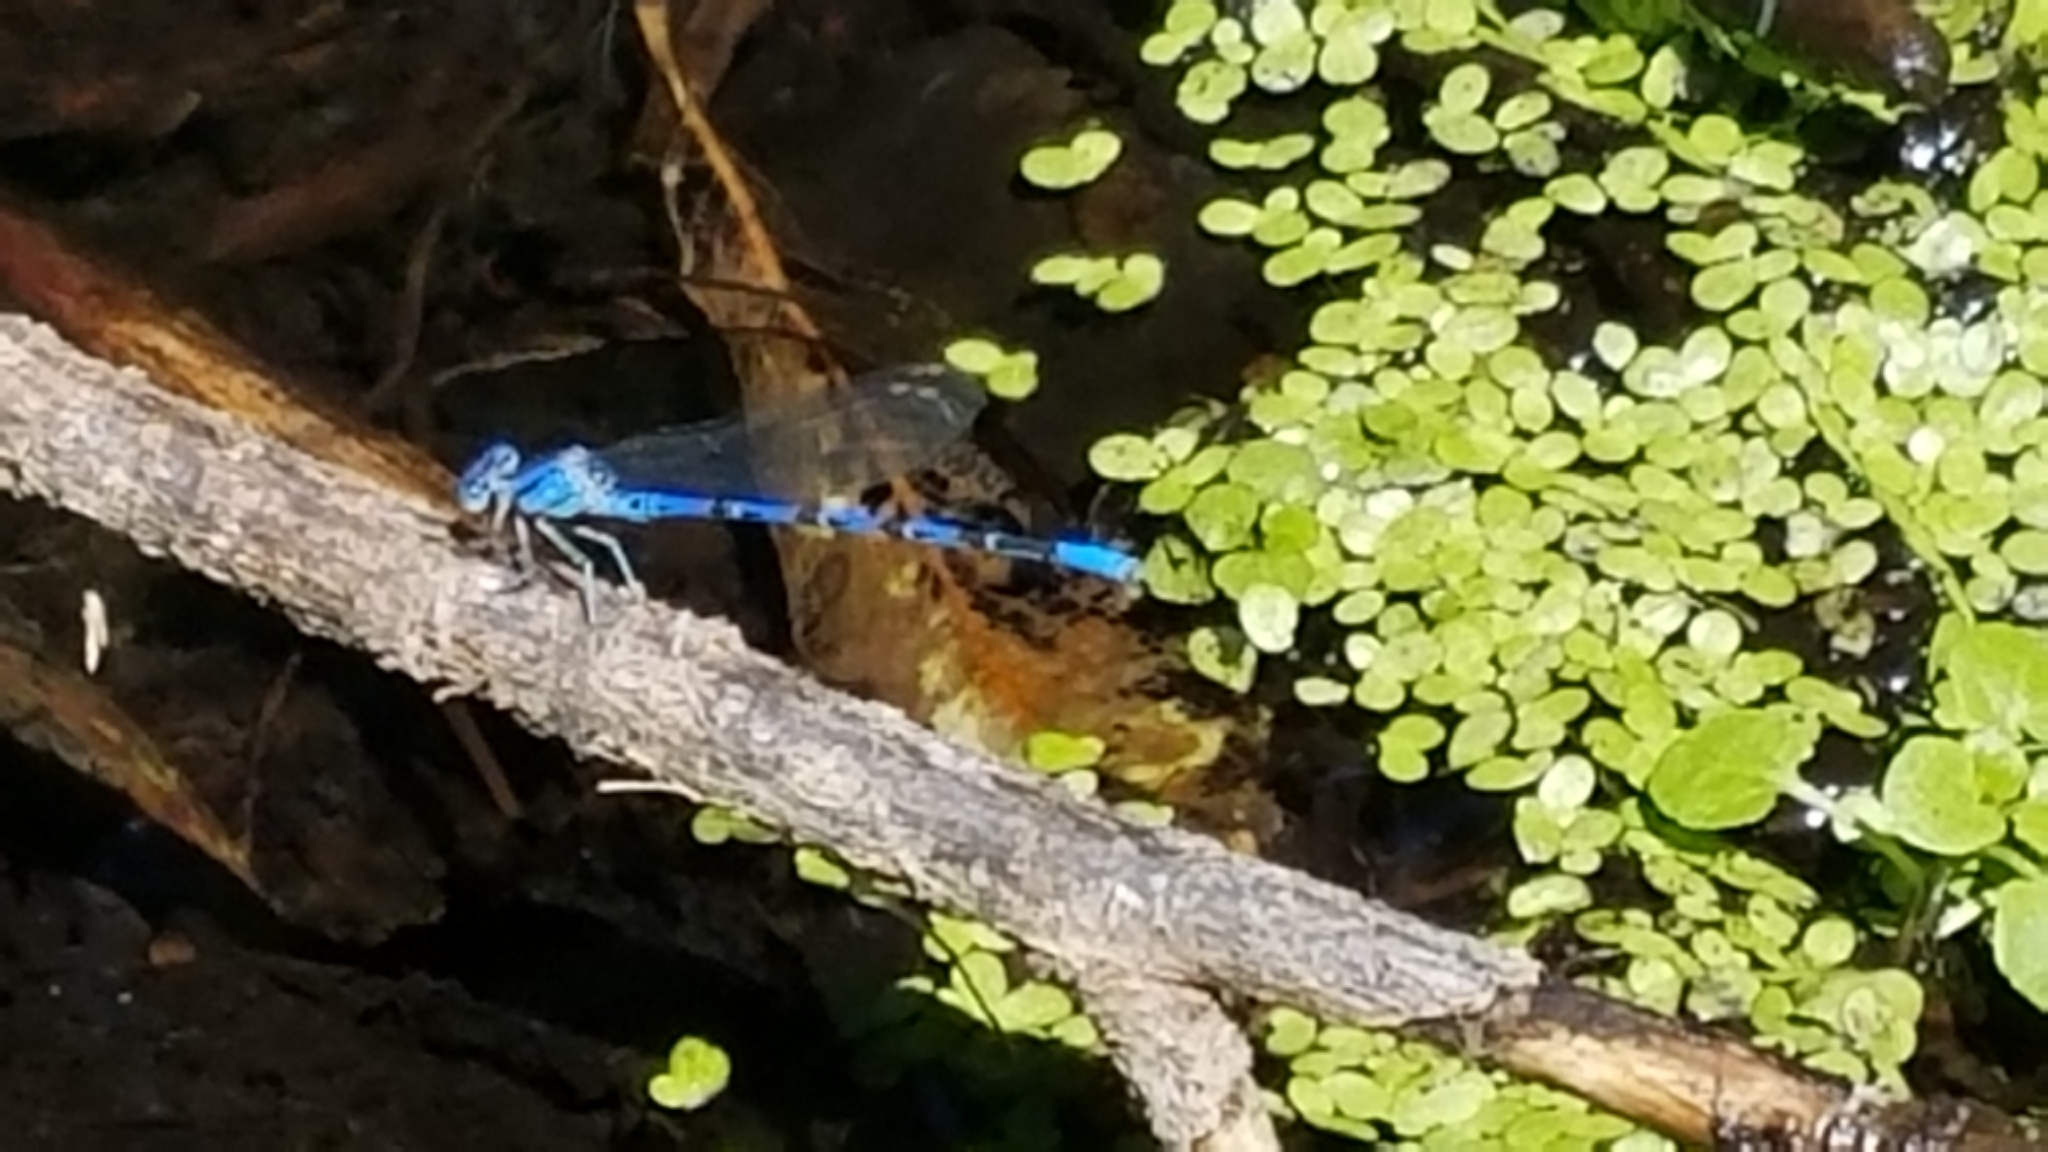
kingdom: Animalia
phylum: Arthropoda
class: Insecta
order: Odonata
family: Coenagrionidae
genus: Argia
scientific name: Argia vivida
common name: Vivid dancer
